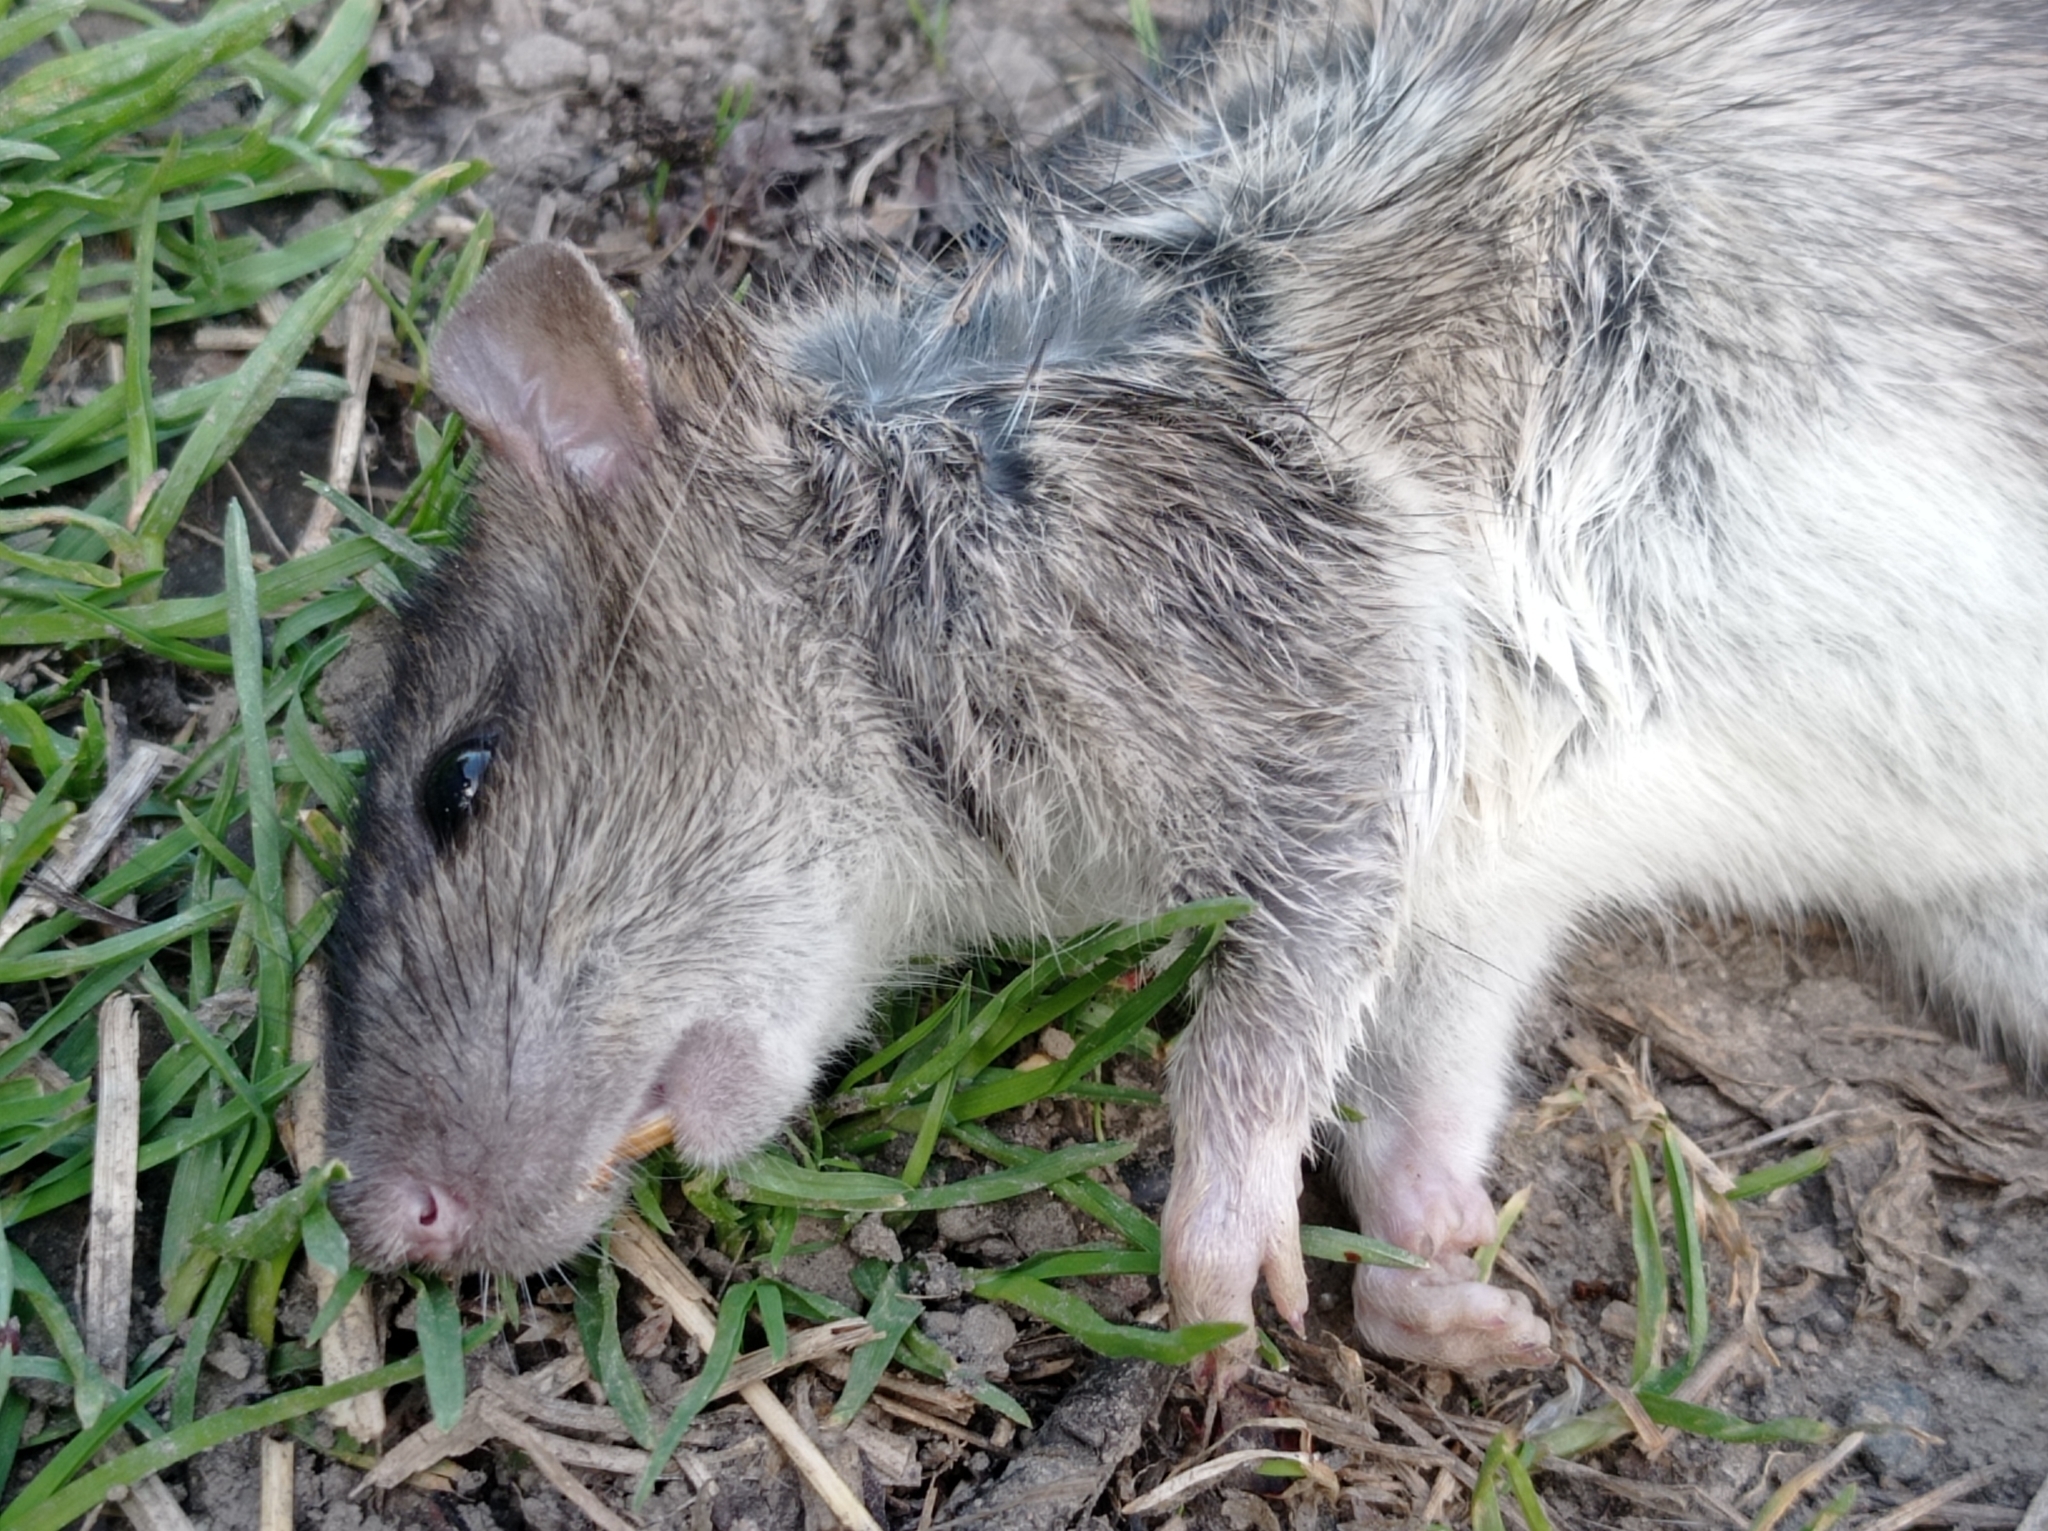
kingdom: Animalia
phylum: Chordata
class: Mammalia
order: Rodentia
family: Muridae
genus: Rattus
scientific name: Rattus norvegicus
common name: Brown rat
